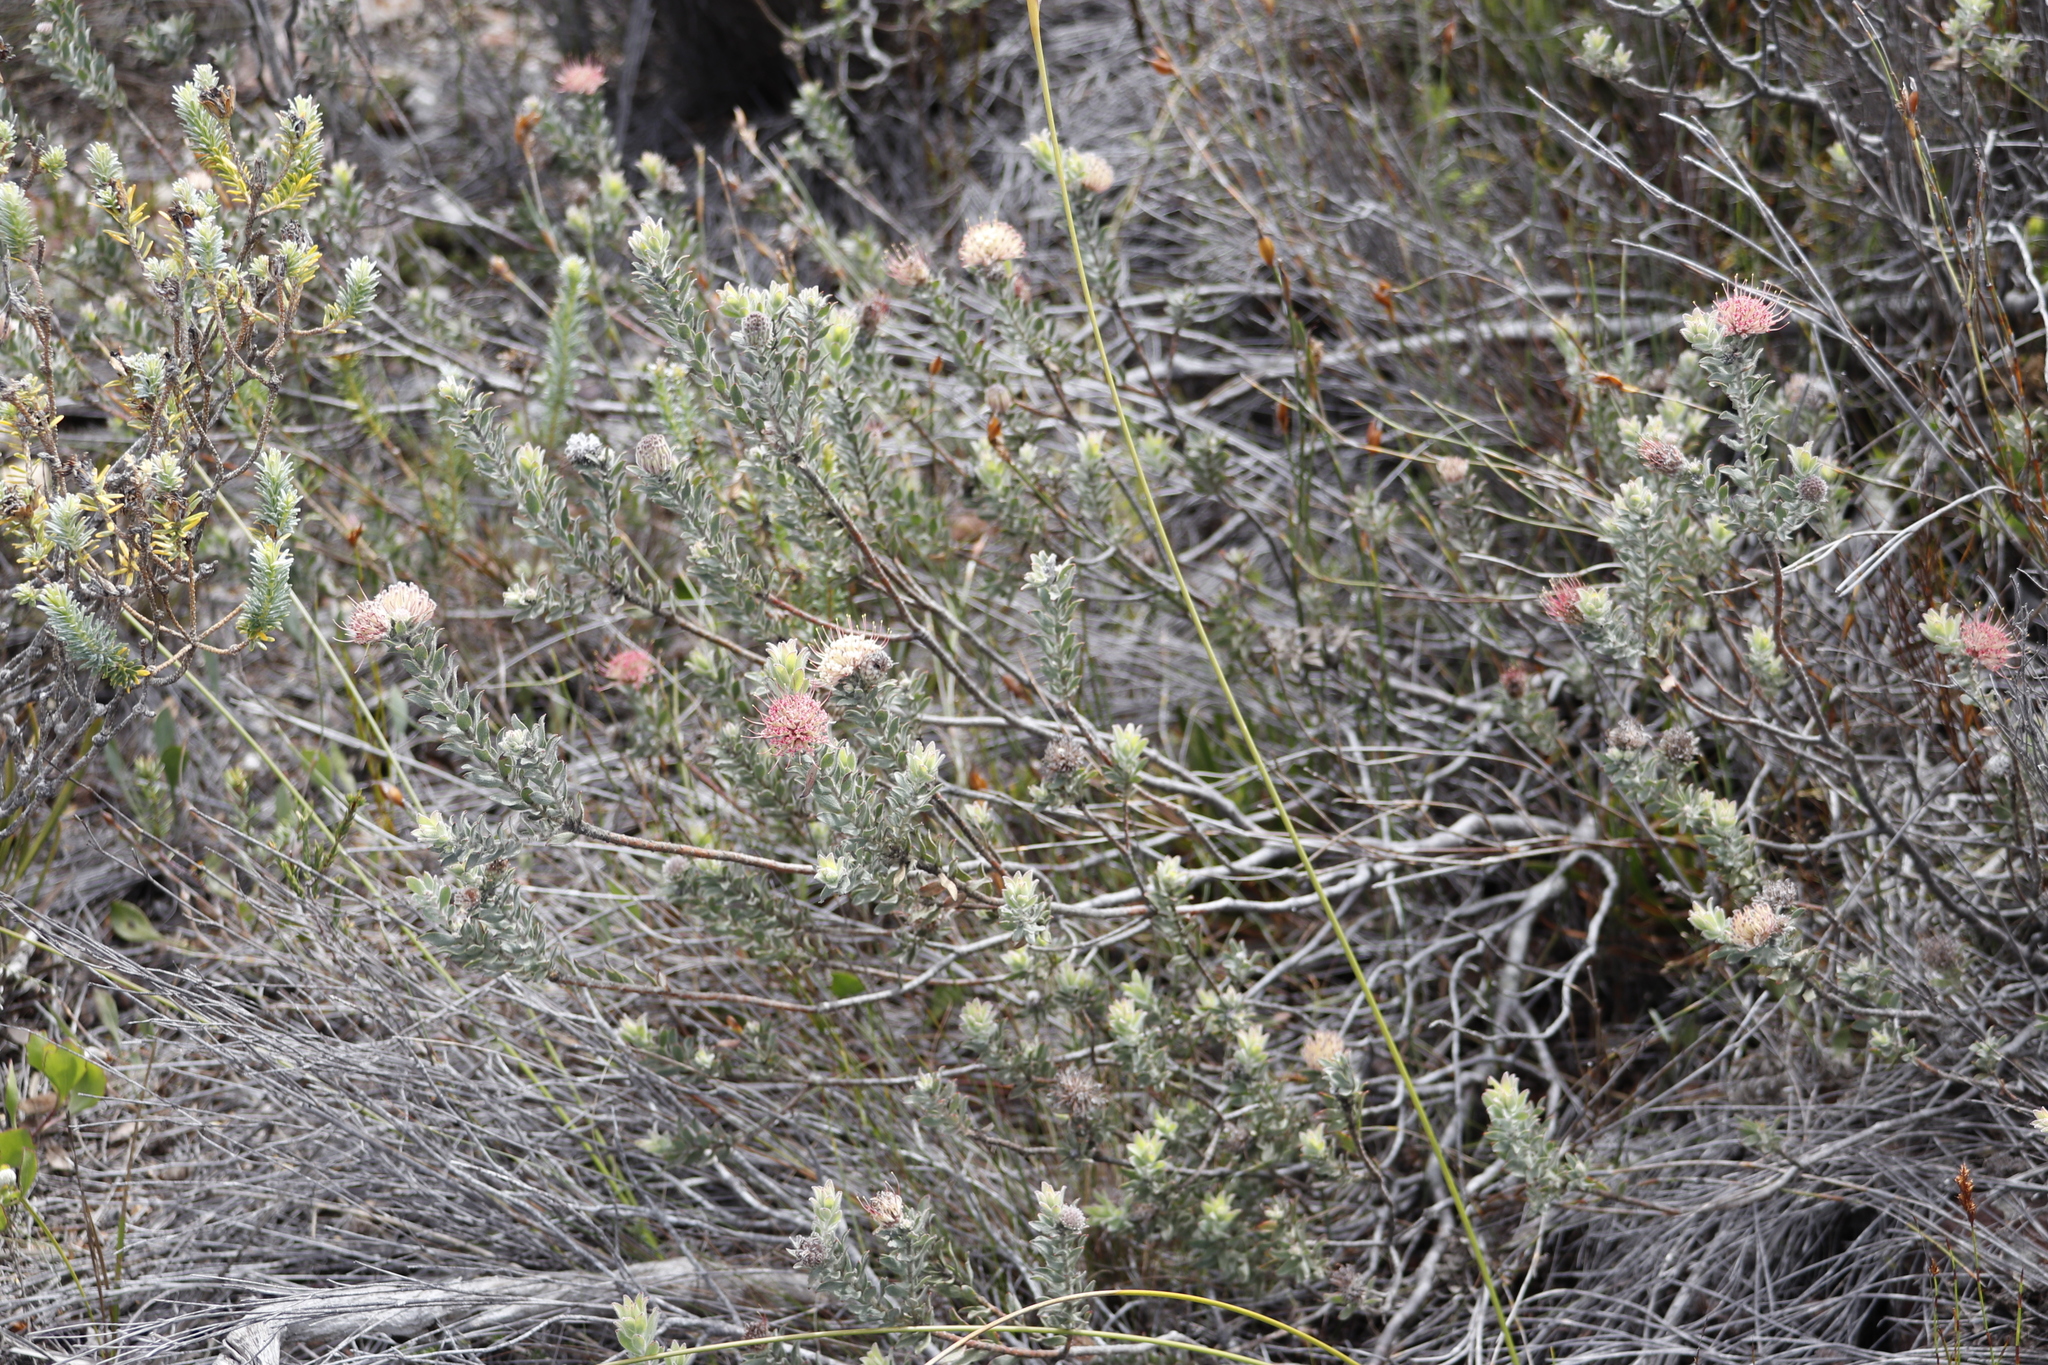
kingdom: Plantae
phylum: Tracheophyta
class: Magnoliopsida
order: Proteales
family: Proteaceae
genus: Leucospermum
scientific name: Leucospermum calligerum
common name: Arid pincushion
